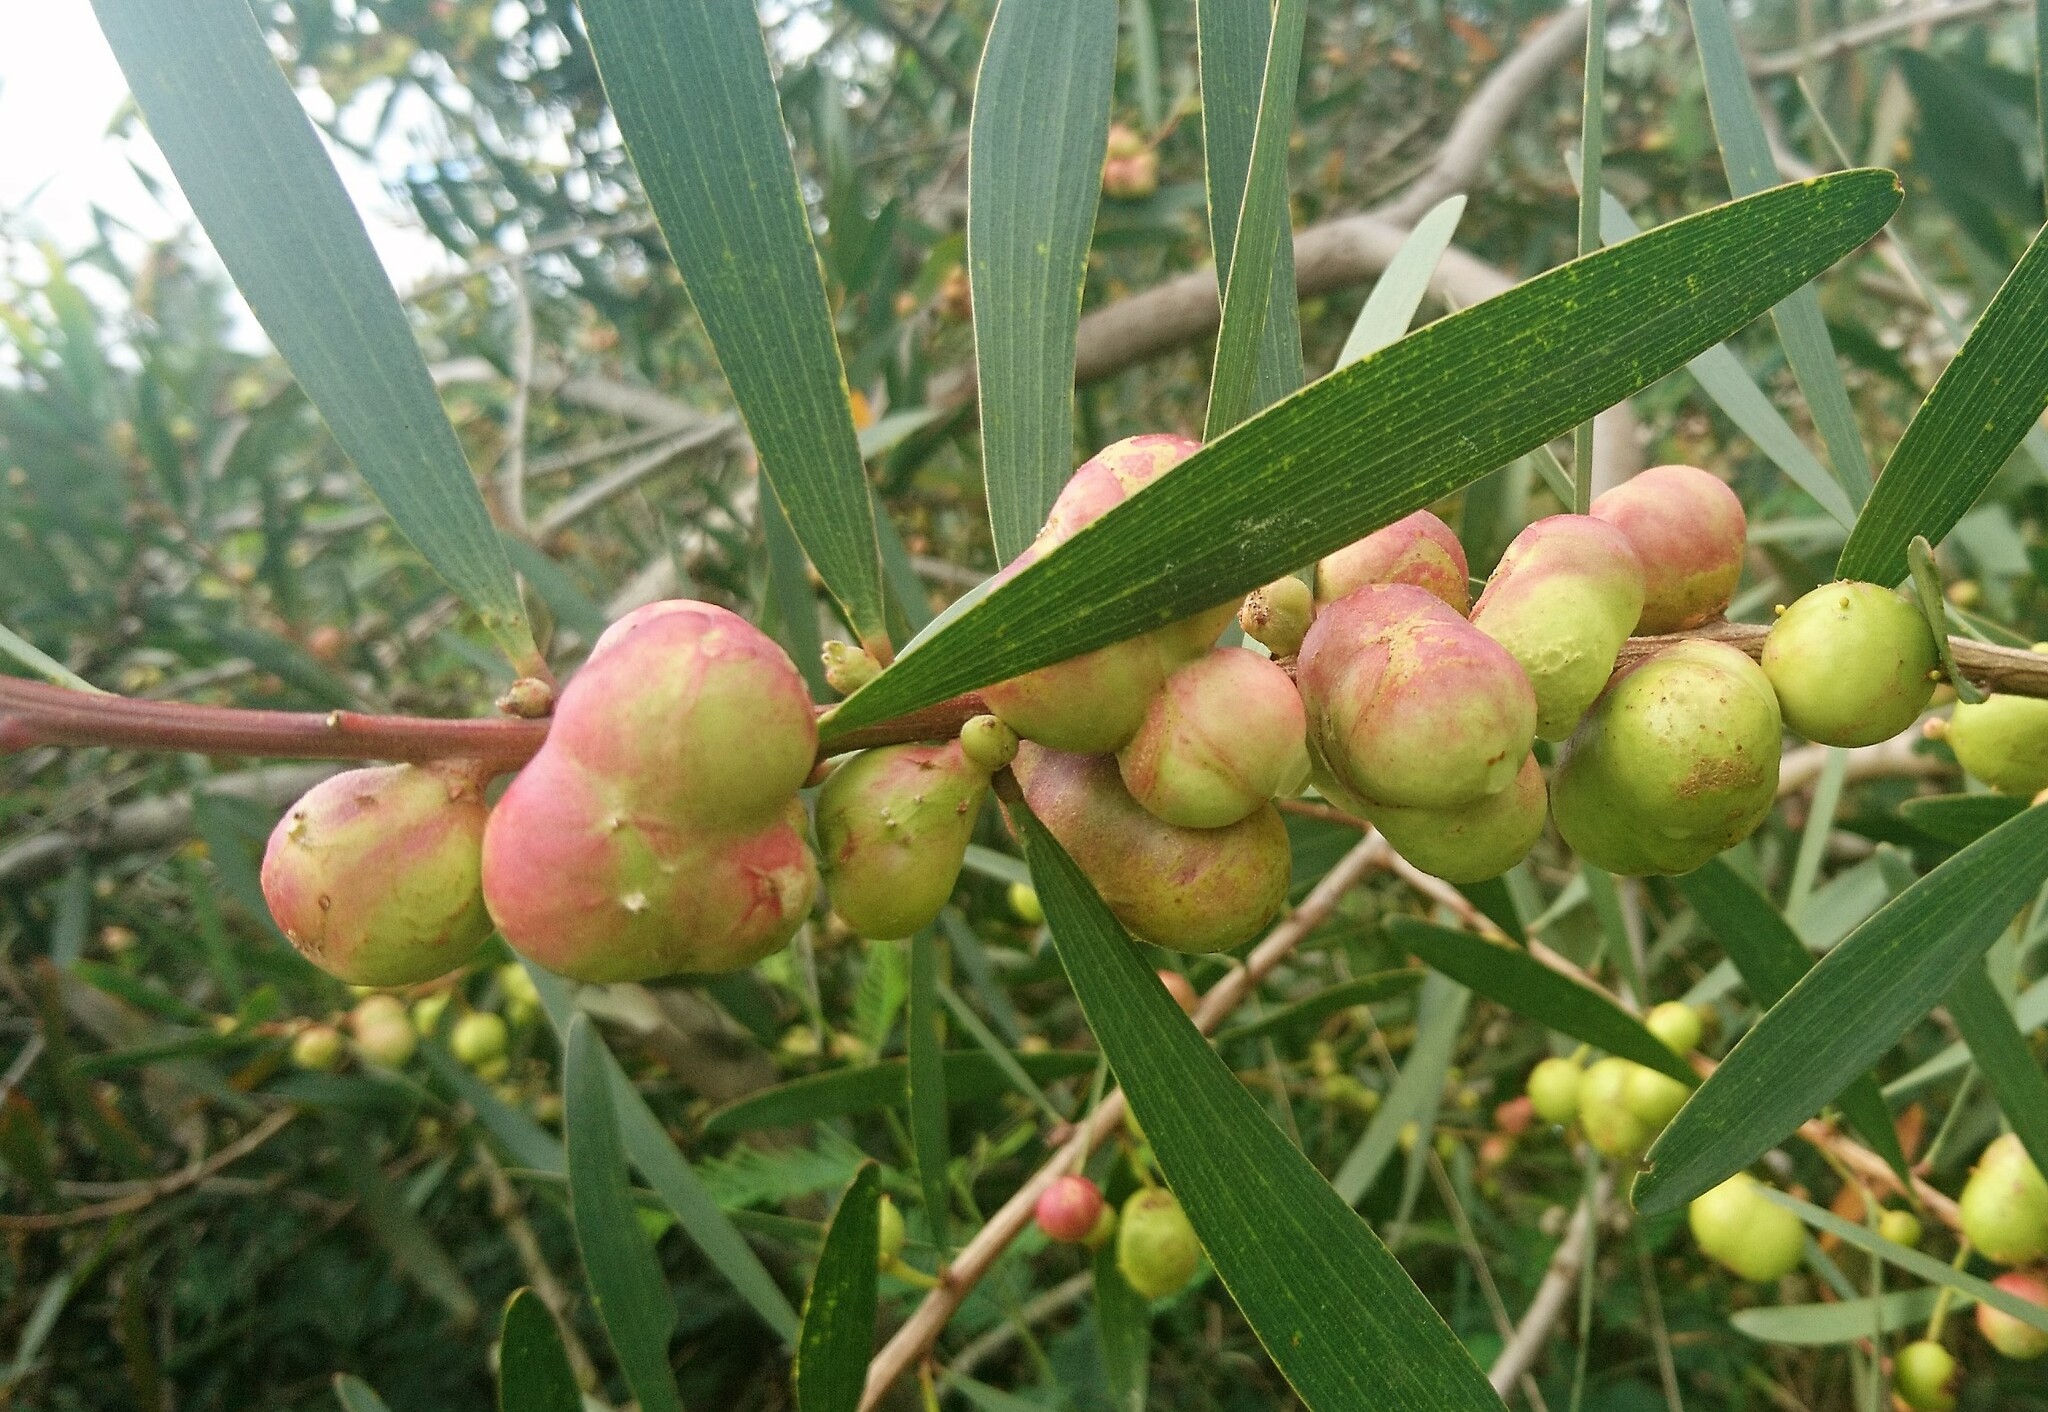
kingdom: Animalia
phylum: Arthropoda
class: Insecta
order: Hymenoptera
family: Pteromalidae
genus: Trichilogaster
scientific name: Trichilogaster acaciaelongifoliae
